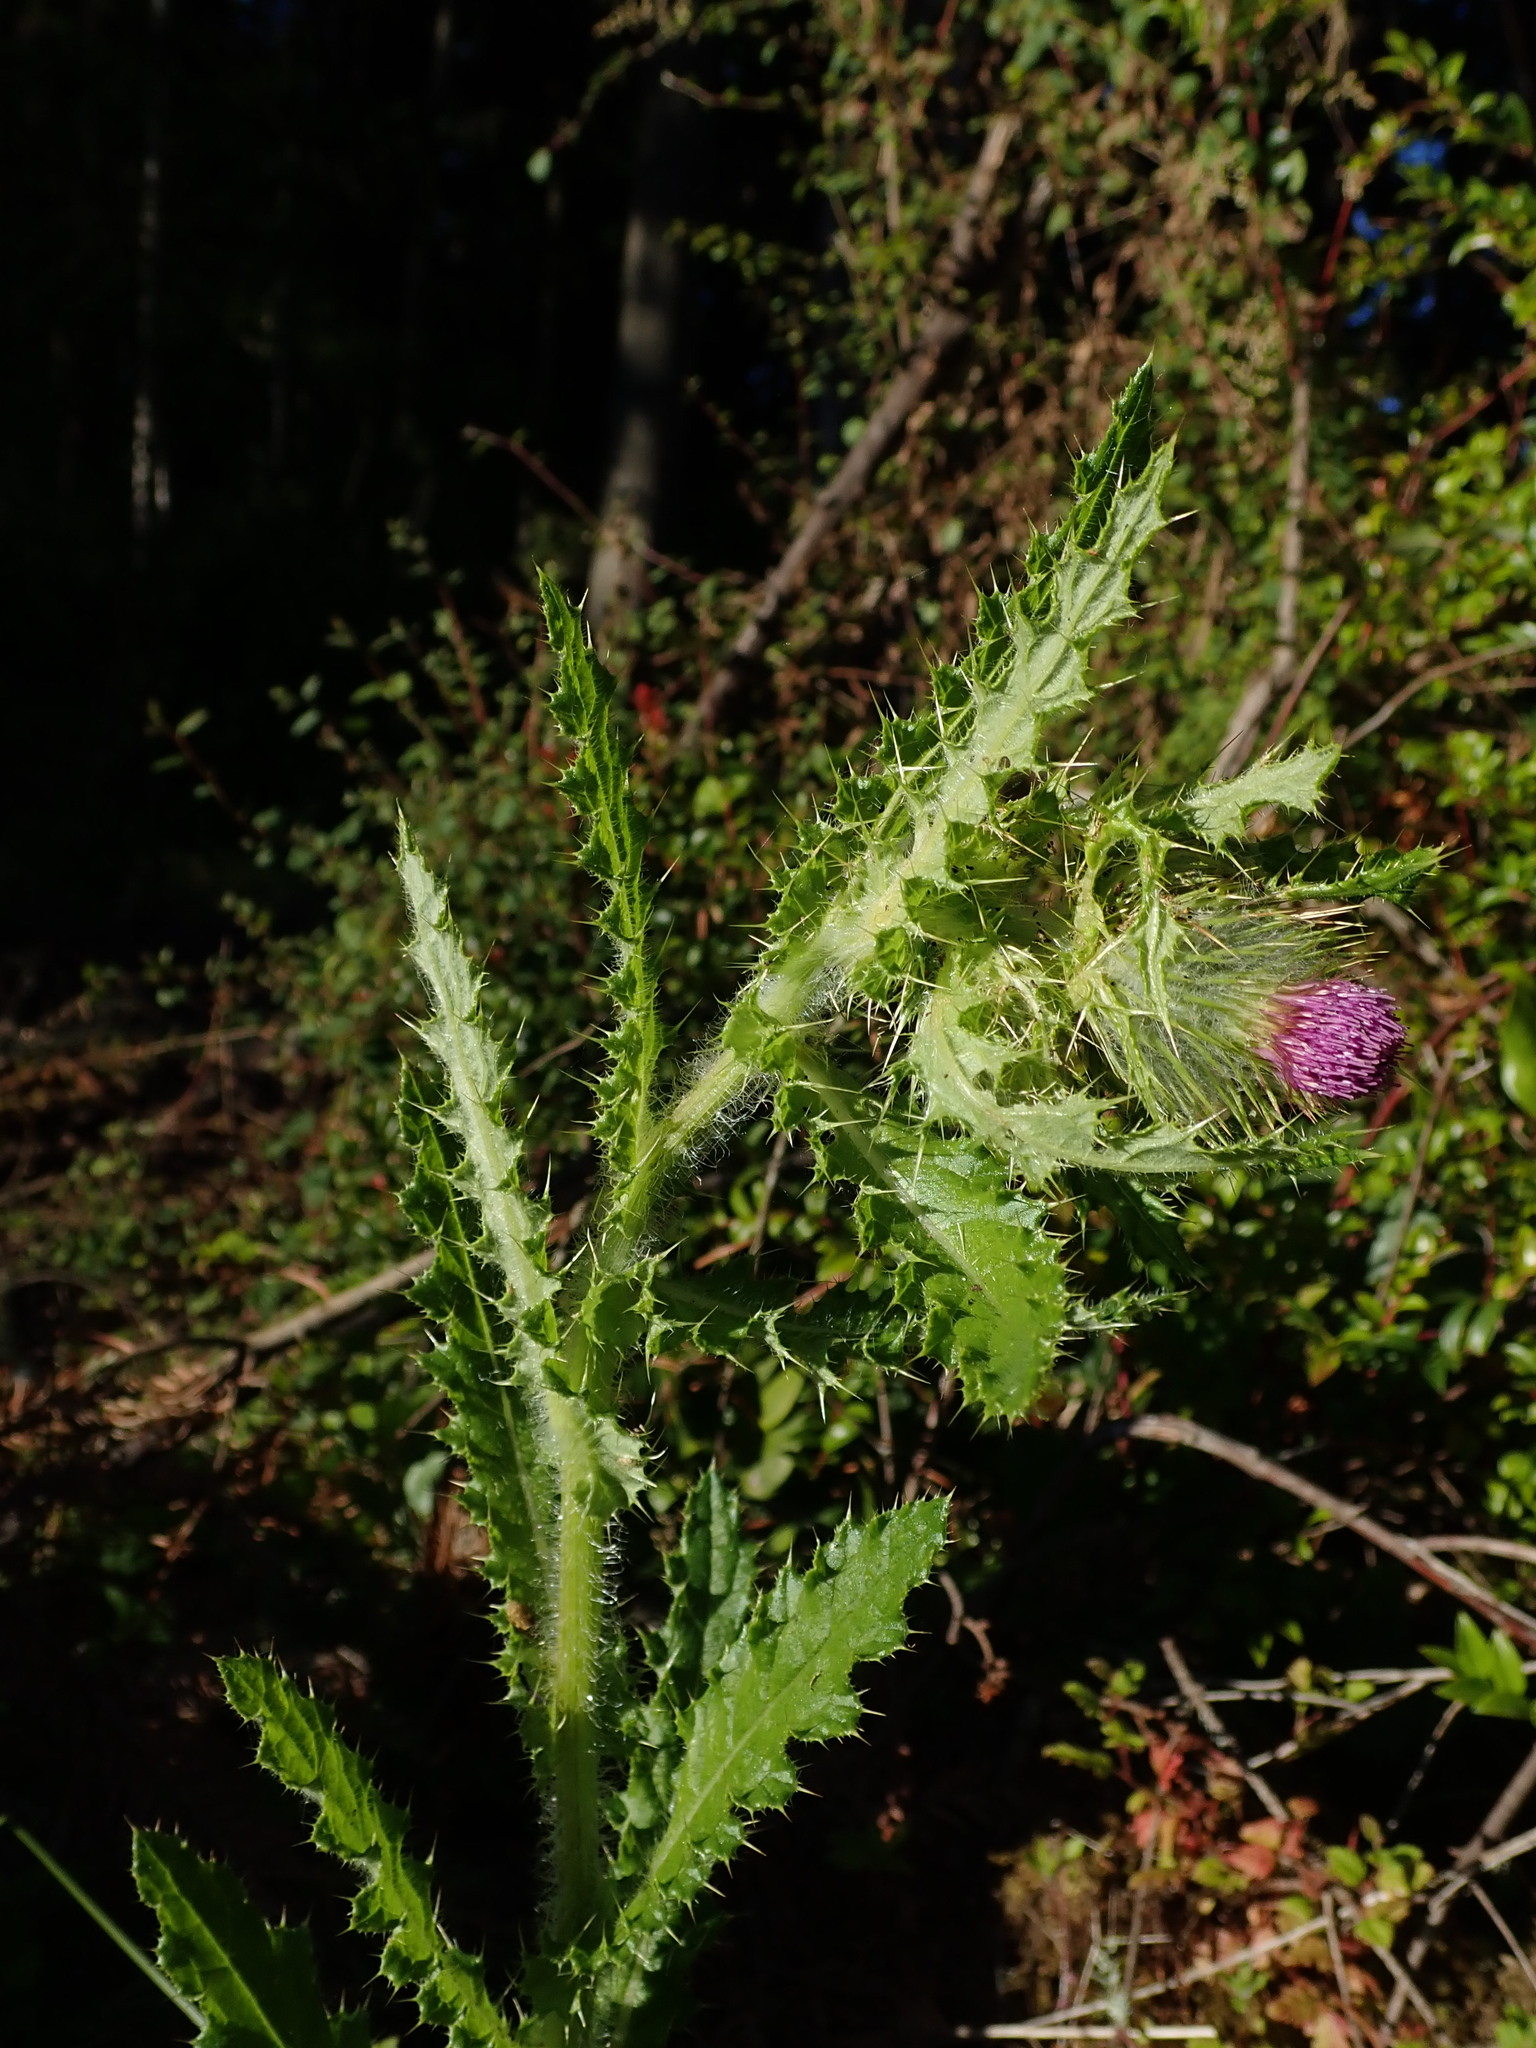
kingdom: Plantae
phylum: Tracheophyta
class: Magnoliopsida
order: Asterales
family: Asteraceae
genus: Cirsium
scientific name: Cirsium brevistylum
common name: Indian thistle
